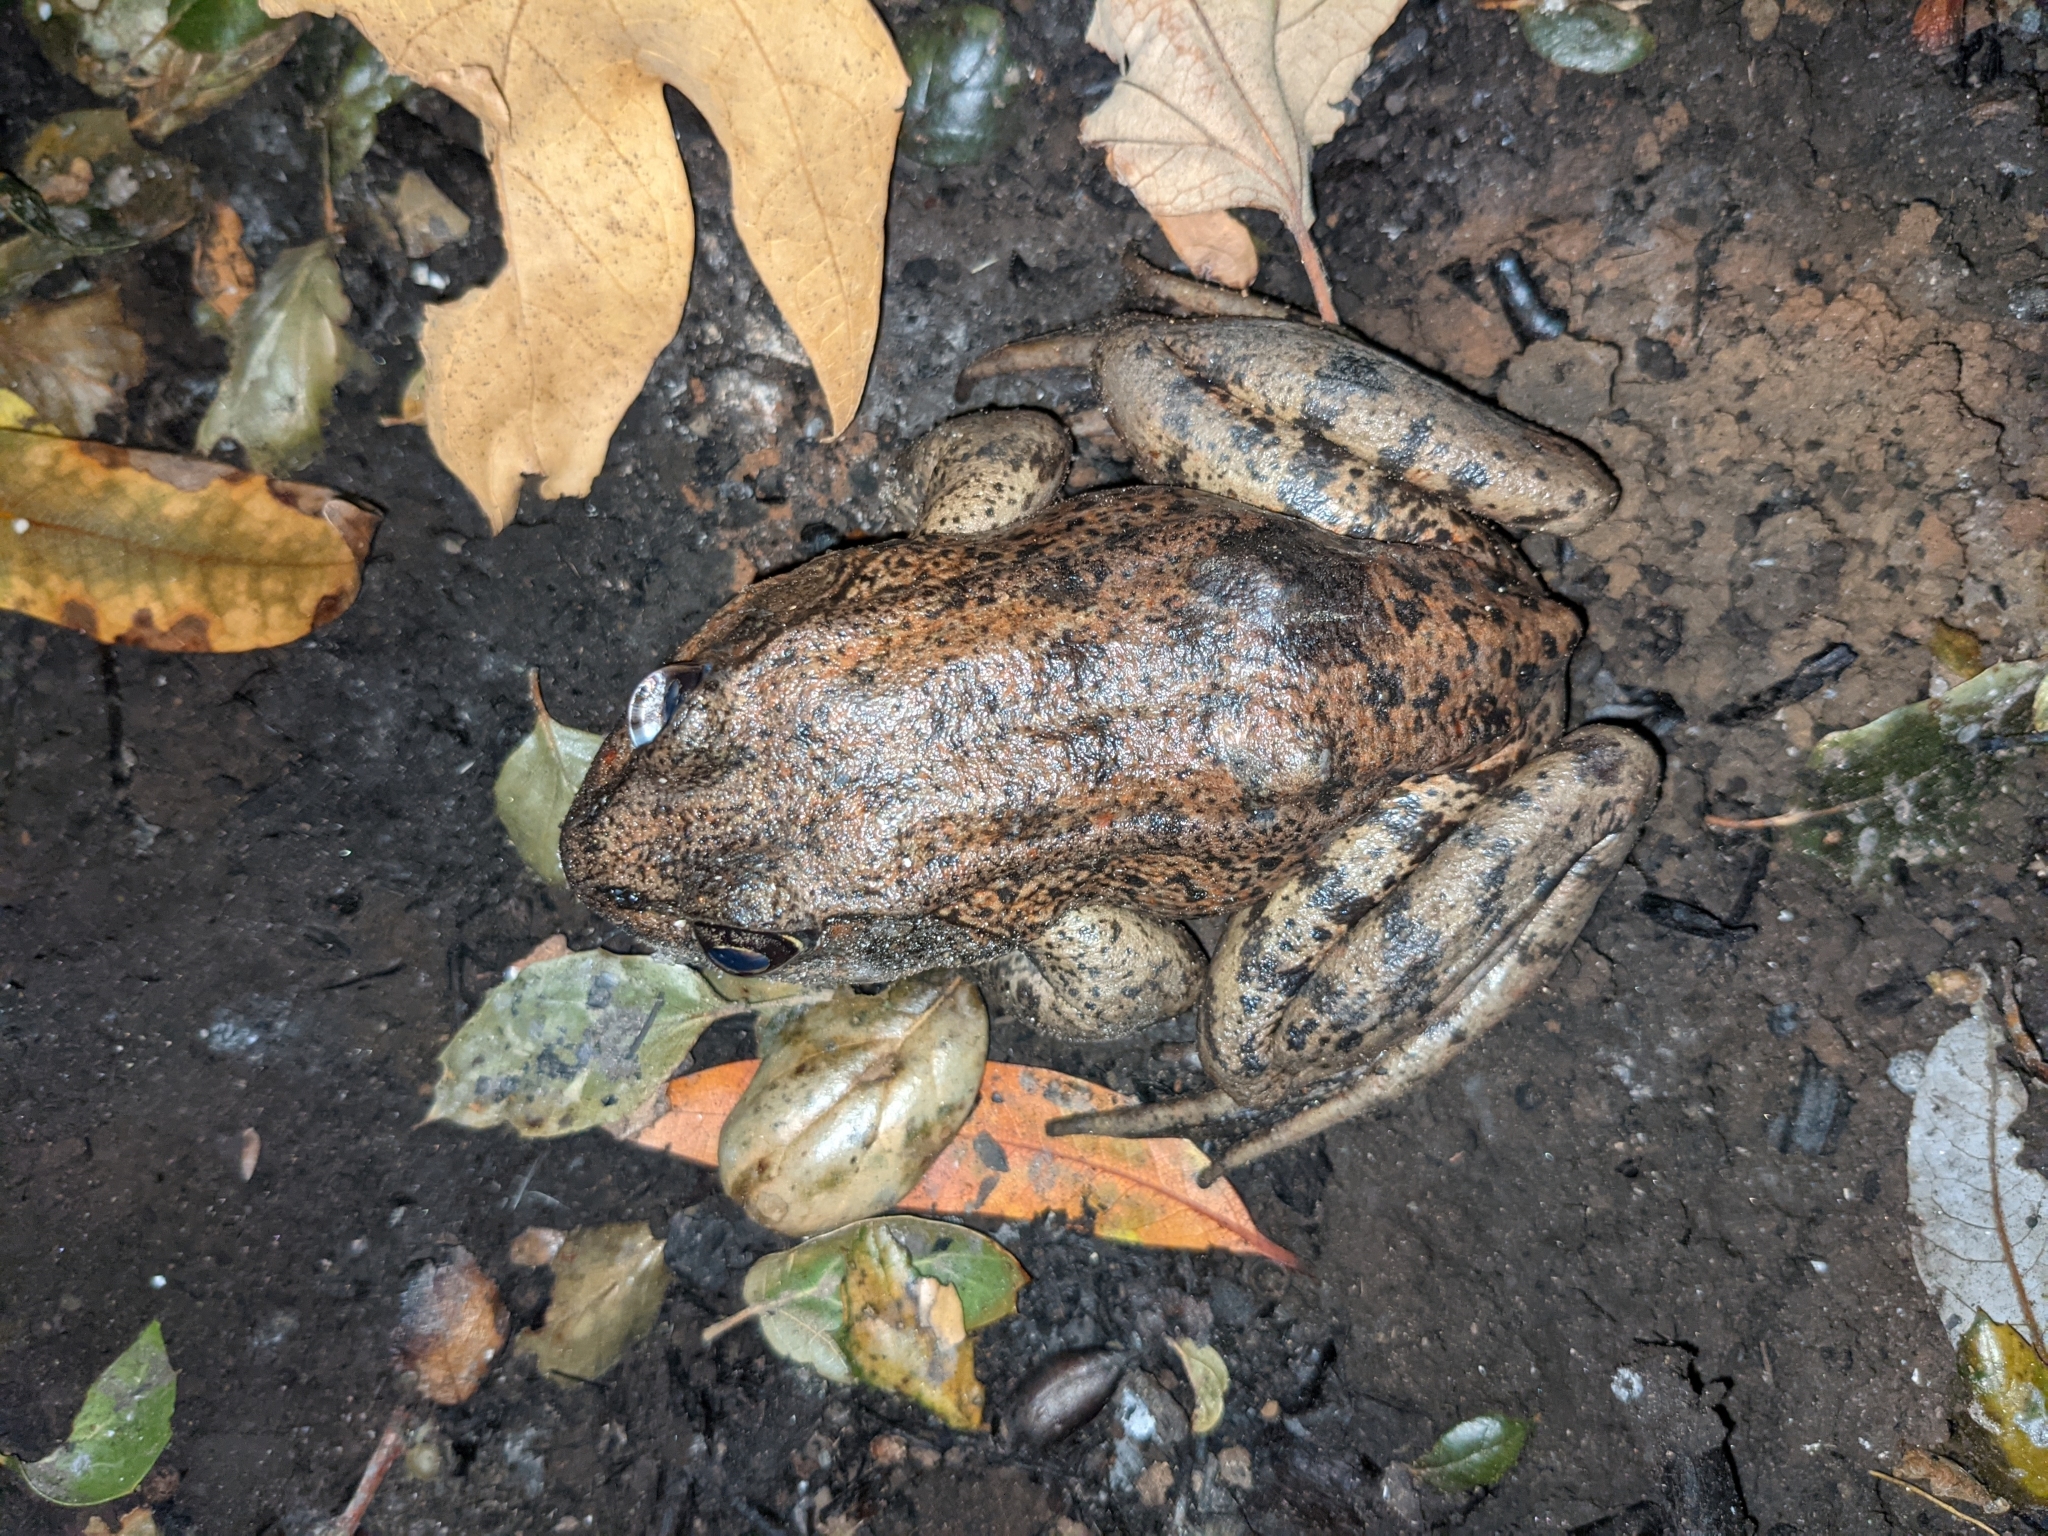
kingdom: Animalia
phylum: Chordata
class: Amphibia
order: Anura
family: Ranidae
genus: Rana
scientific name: Rana draytonii
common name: California red-legged frog
